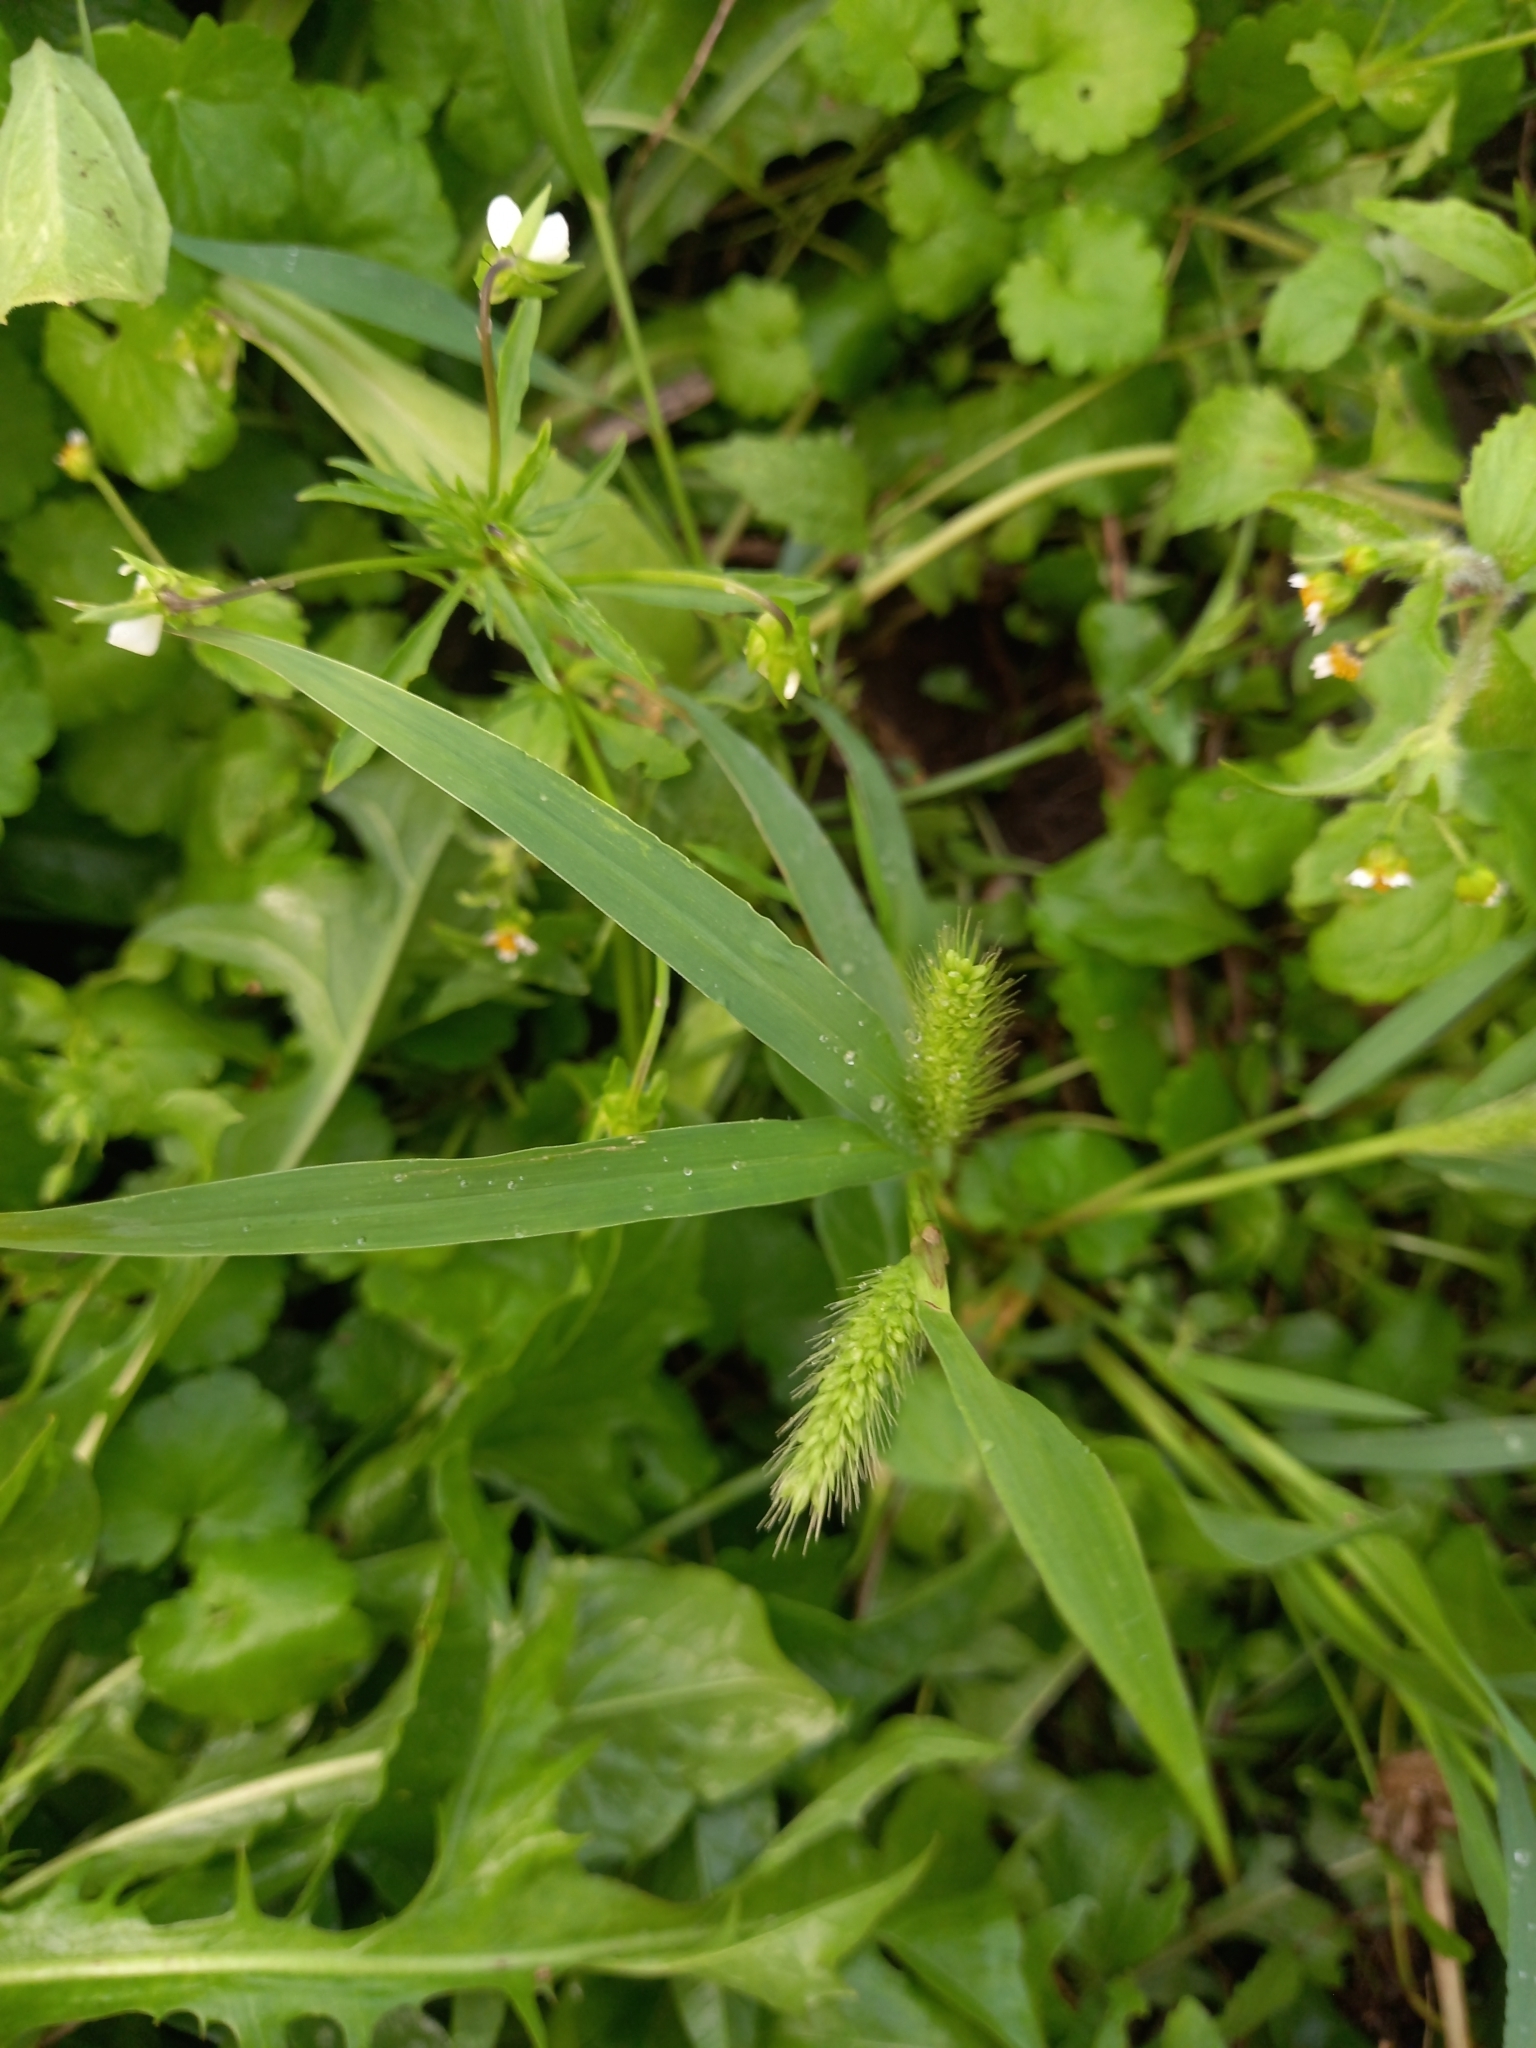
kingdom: Plantae
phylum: Tracheophyta
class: Liliopsida
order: Poales
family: Poaceae
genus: Setaria
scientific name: Setaria viridis
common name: Green bristlegrass
